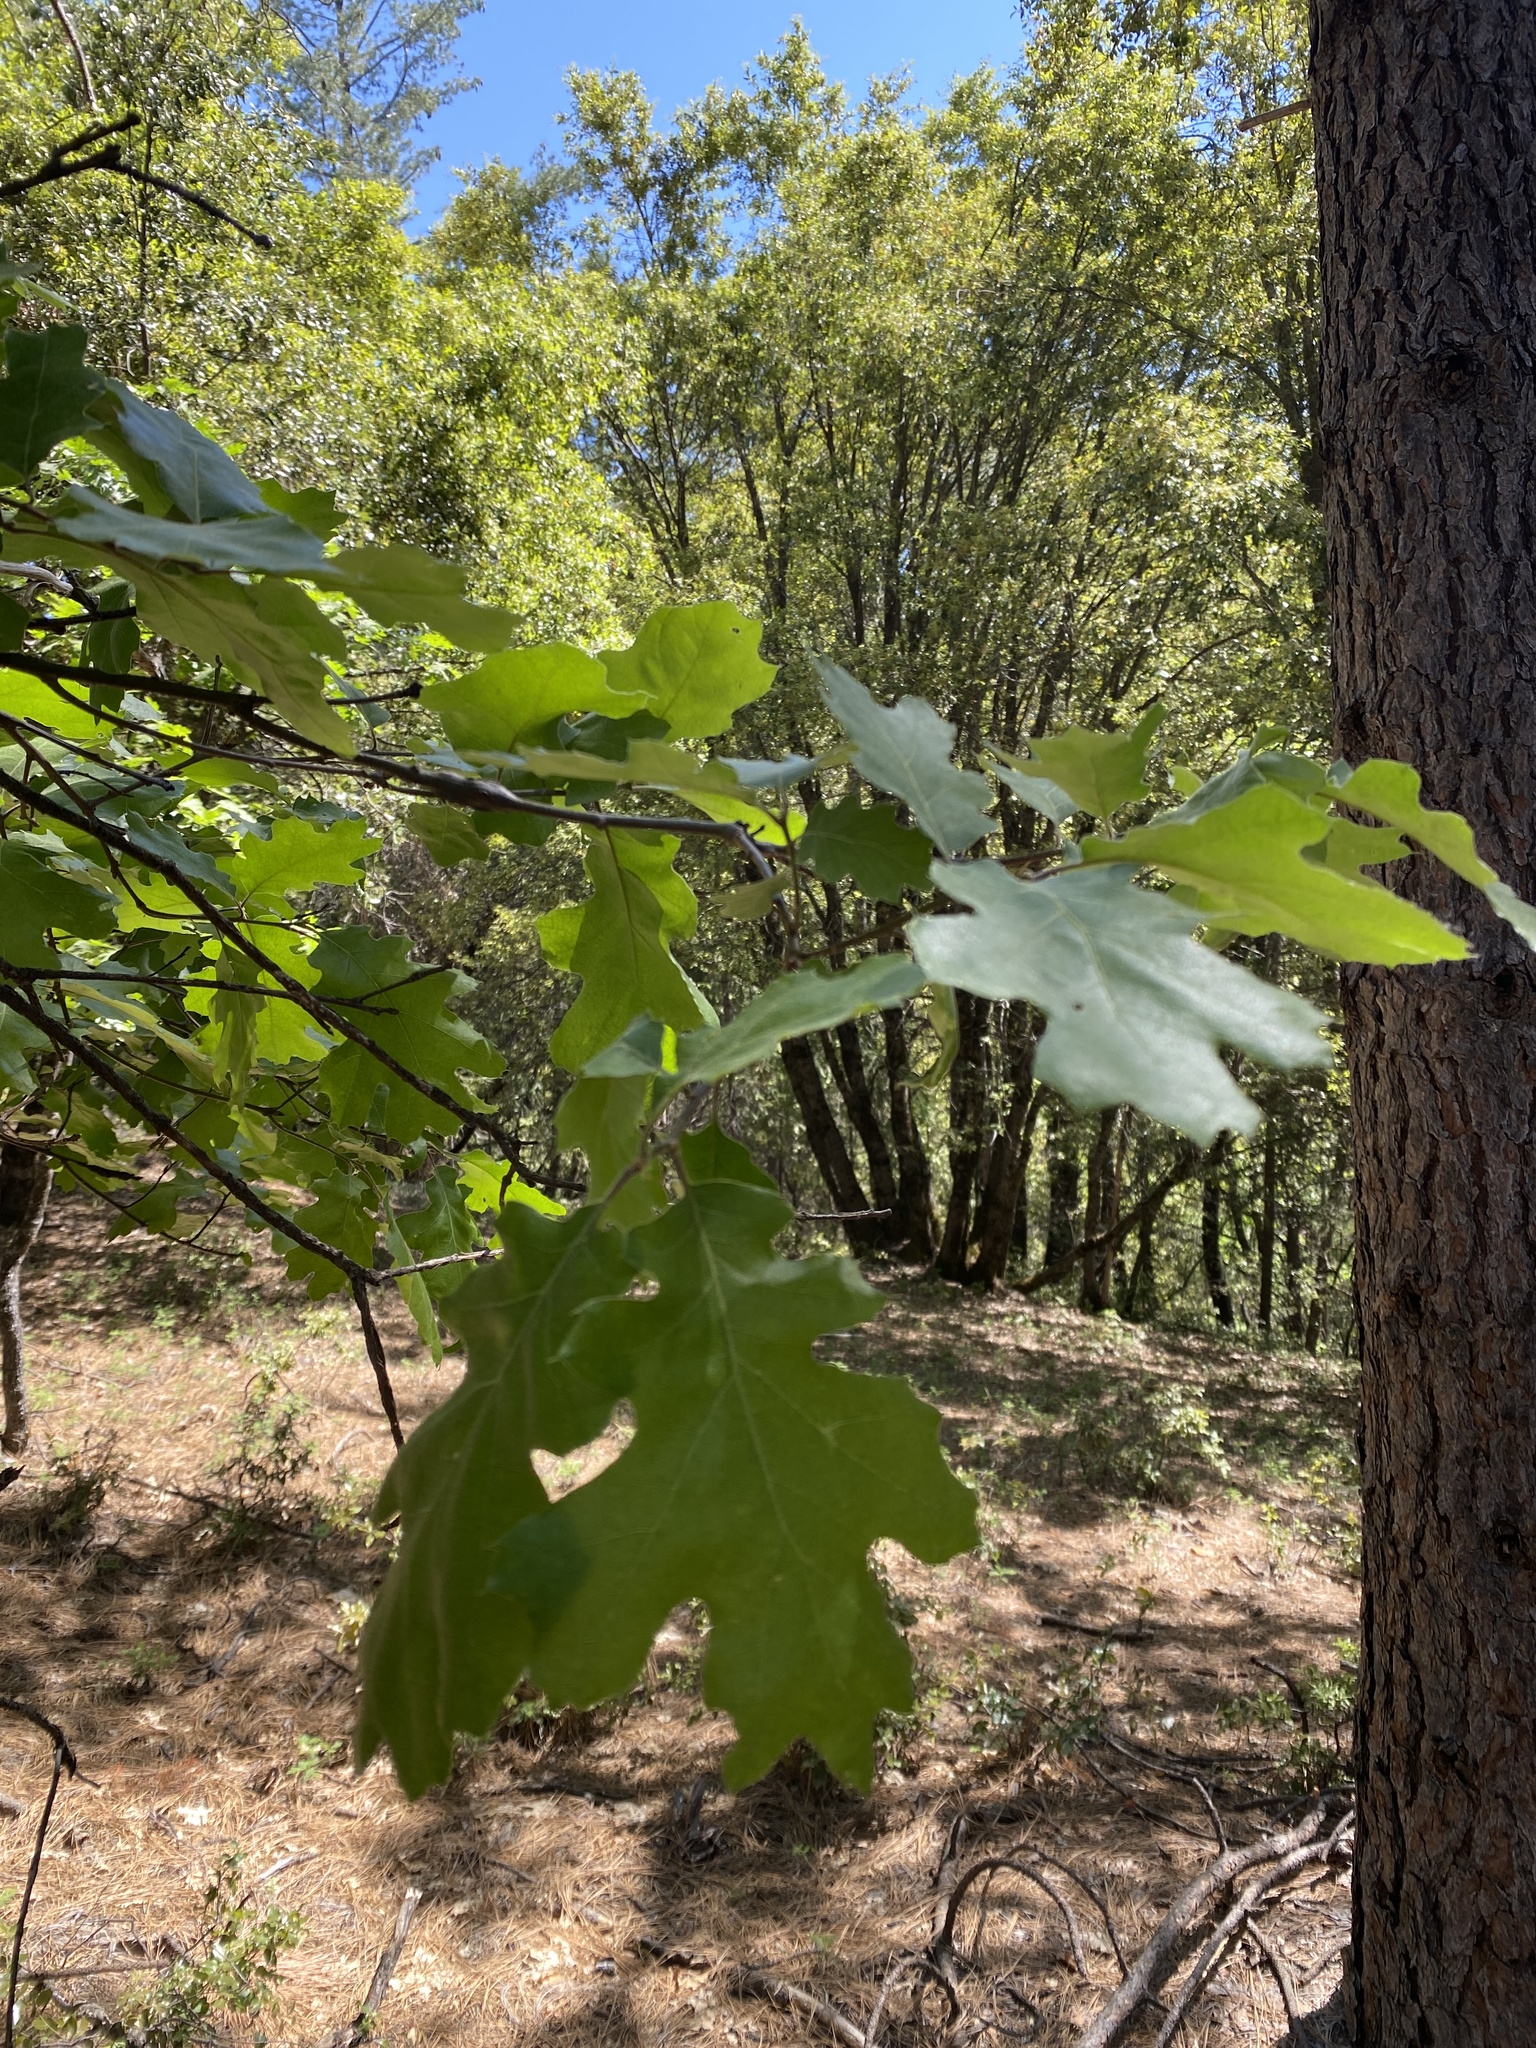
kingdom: Plantae
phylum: Tracheophyta
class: Magnoliopsida
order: Fagales
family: Fagaceae
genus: Quercus
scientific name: Quercus kelloggii
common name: California black oak
